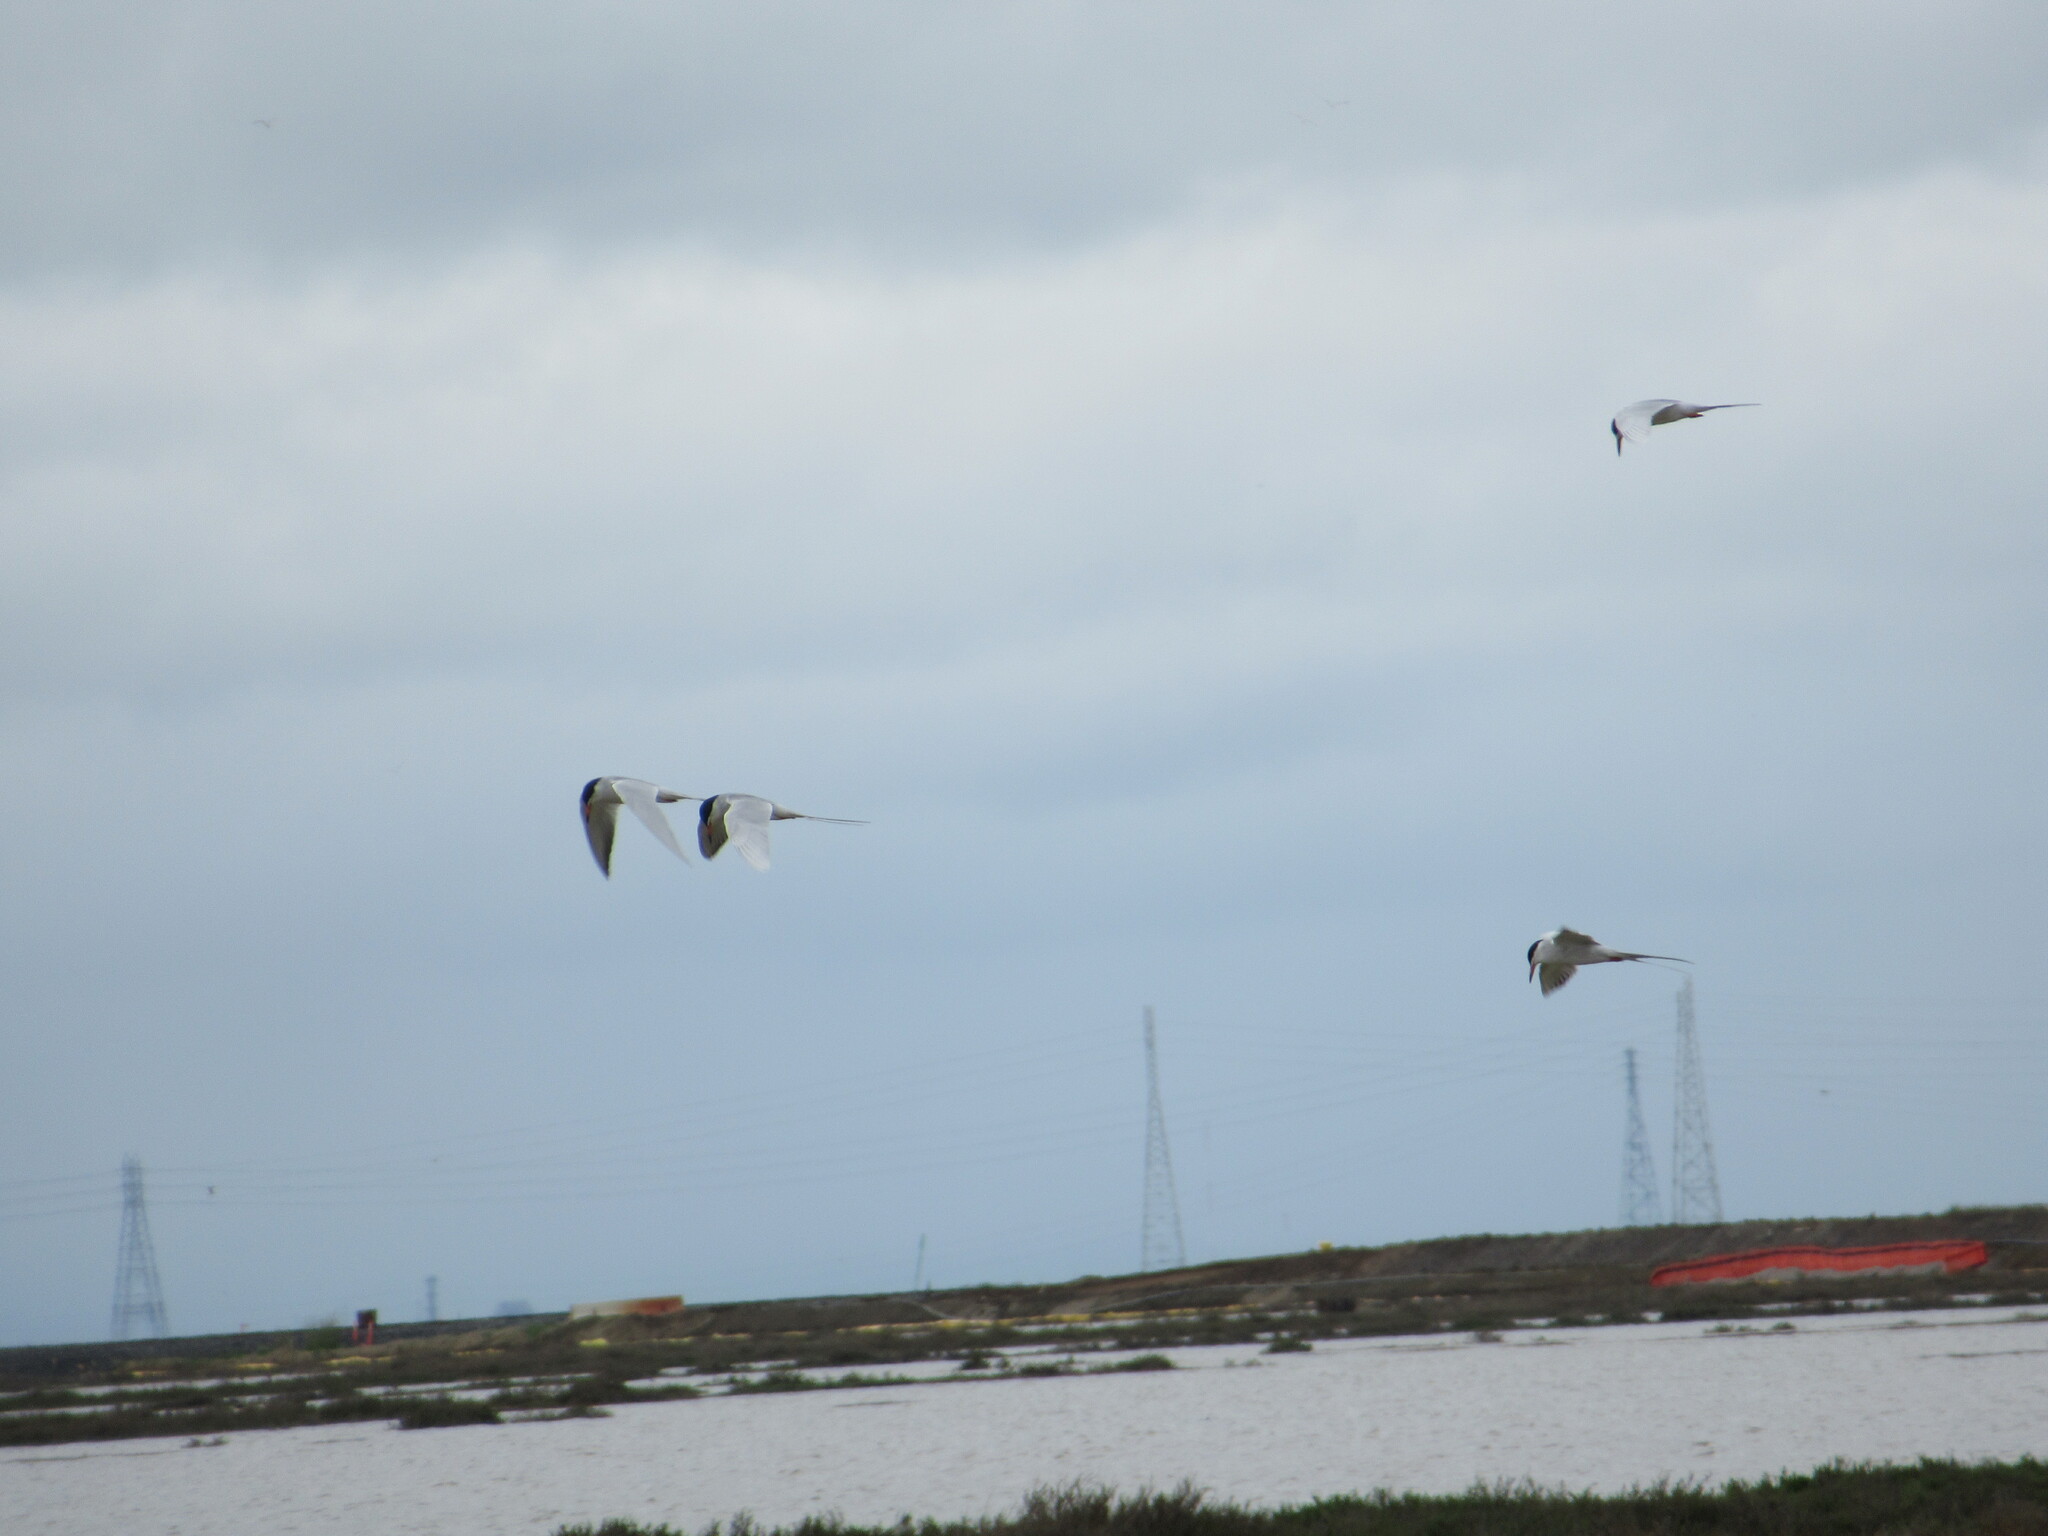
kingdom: Animalia
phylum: Chordata
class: Aves
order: Charadriiformes
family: Laridae
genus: Sterna
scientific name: Sterna forsteri
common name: Forster's tern
